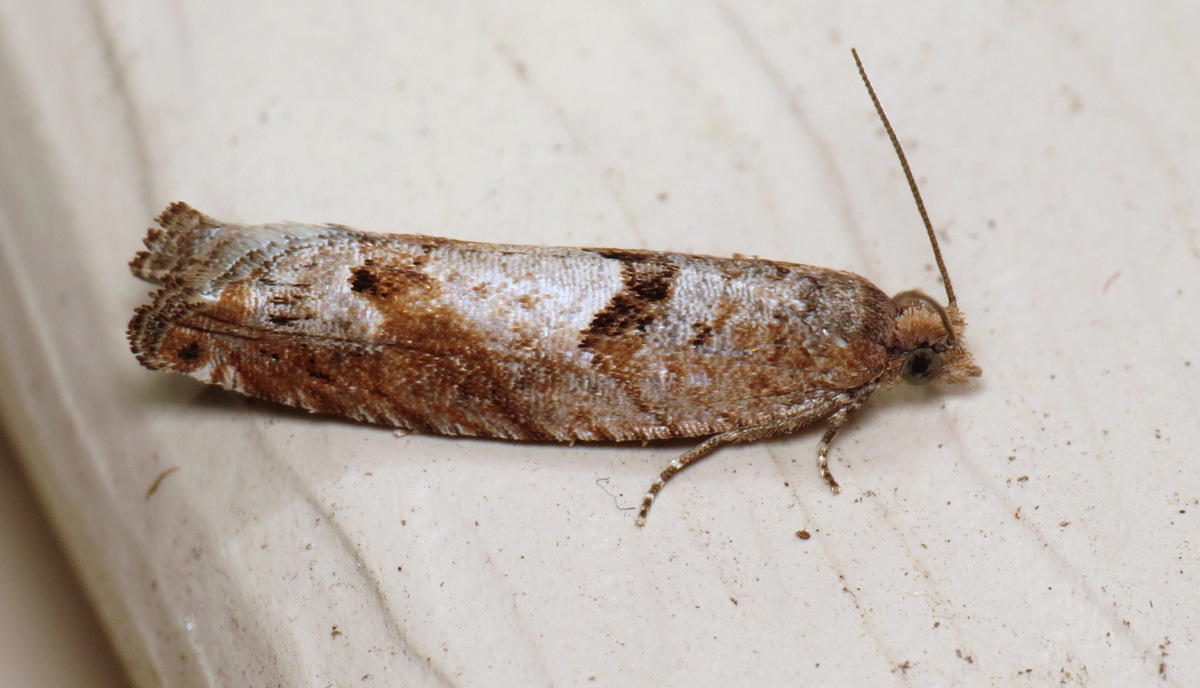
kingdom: Animalia
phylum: Arthropoda
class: Insecta
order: Lepidoptera
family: Tortricidae
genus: Pseudexentera
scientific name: Pseudexentera sepia
